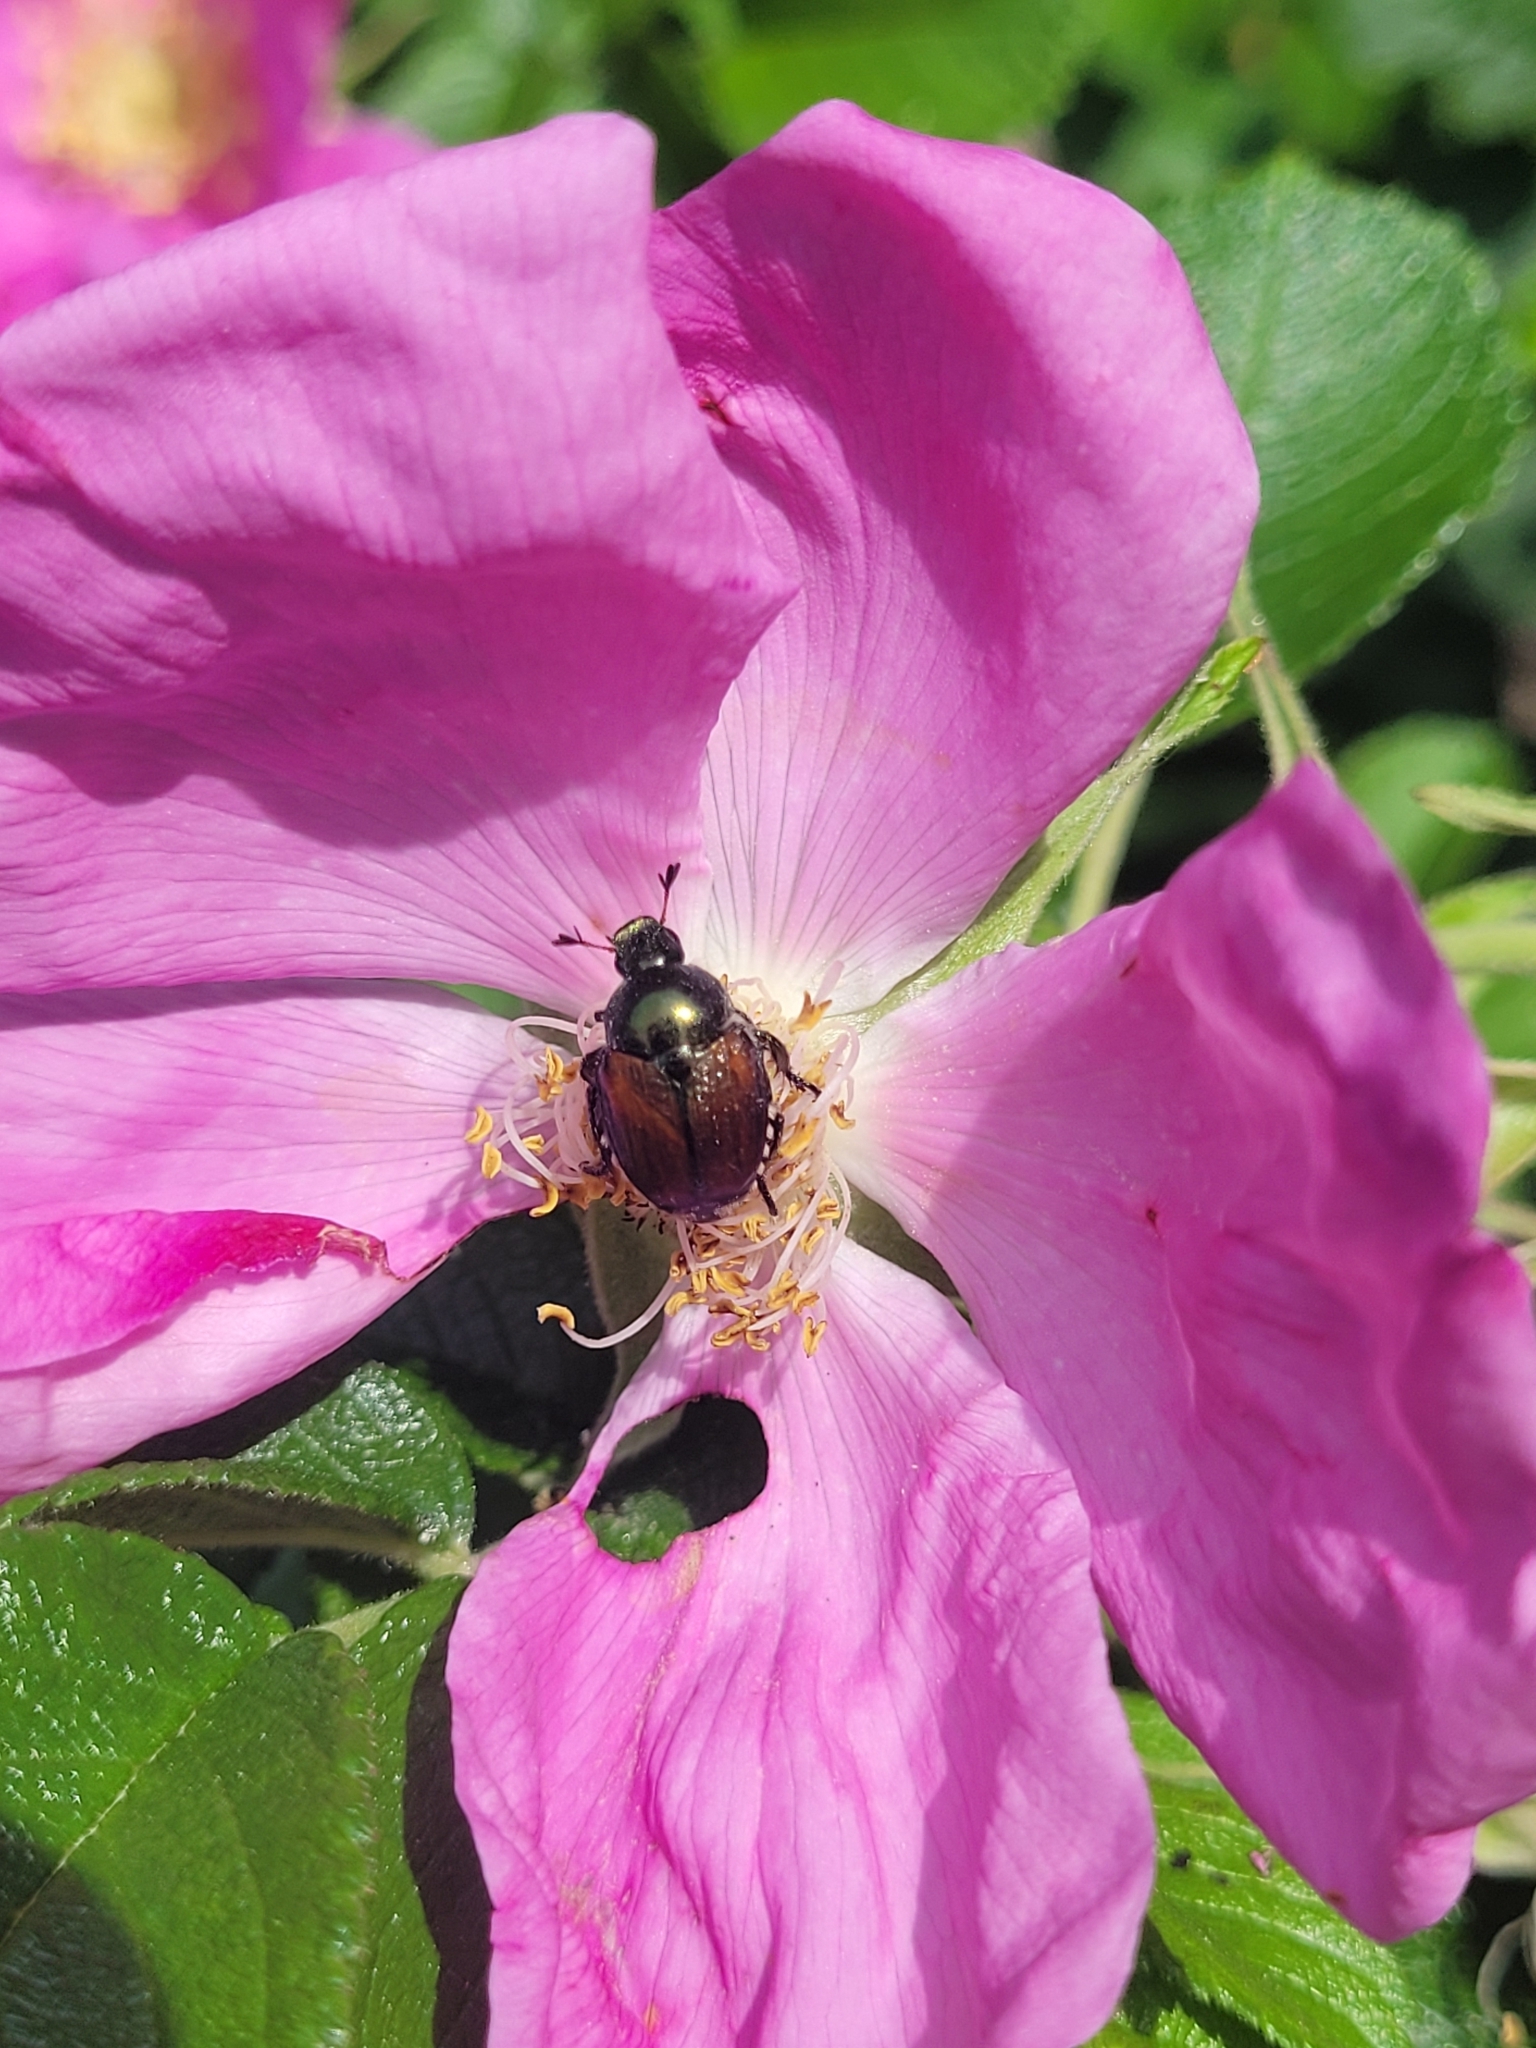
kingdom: Animalia
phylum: Arthropoda
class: Insecta
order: Coleoptera
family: Scarabaeidae
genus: Popillia
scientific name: Popillia japonica
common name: Japanese beetle
